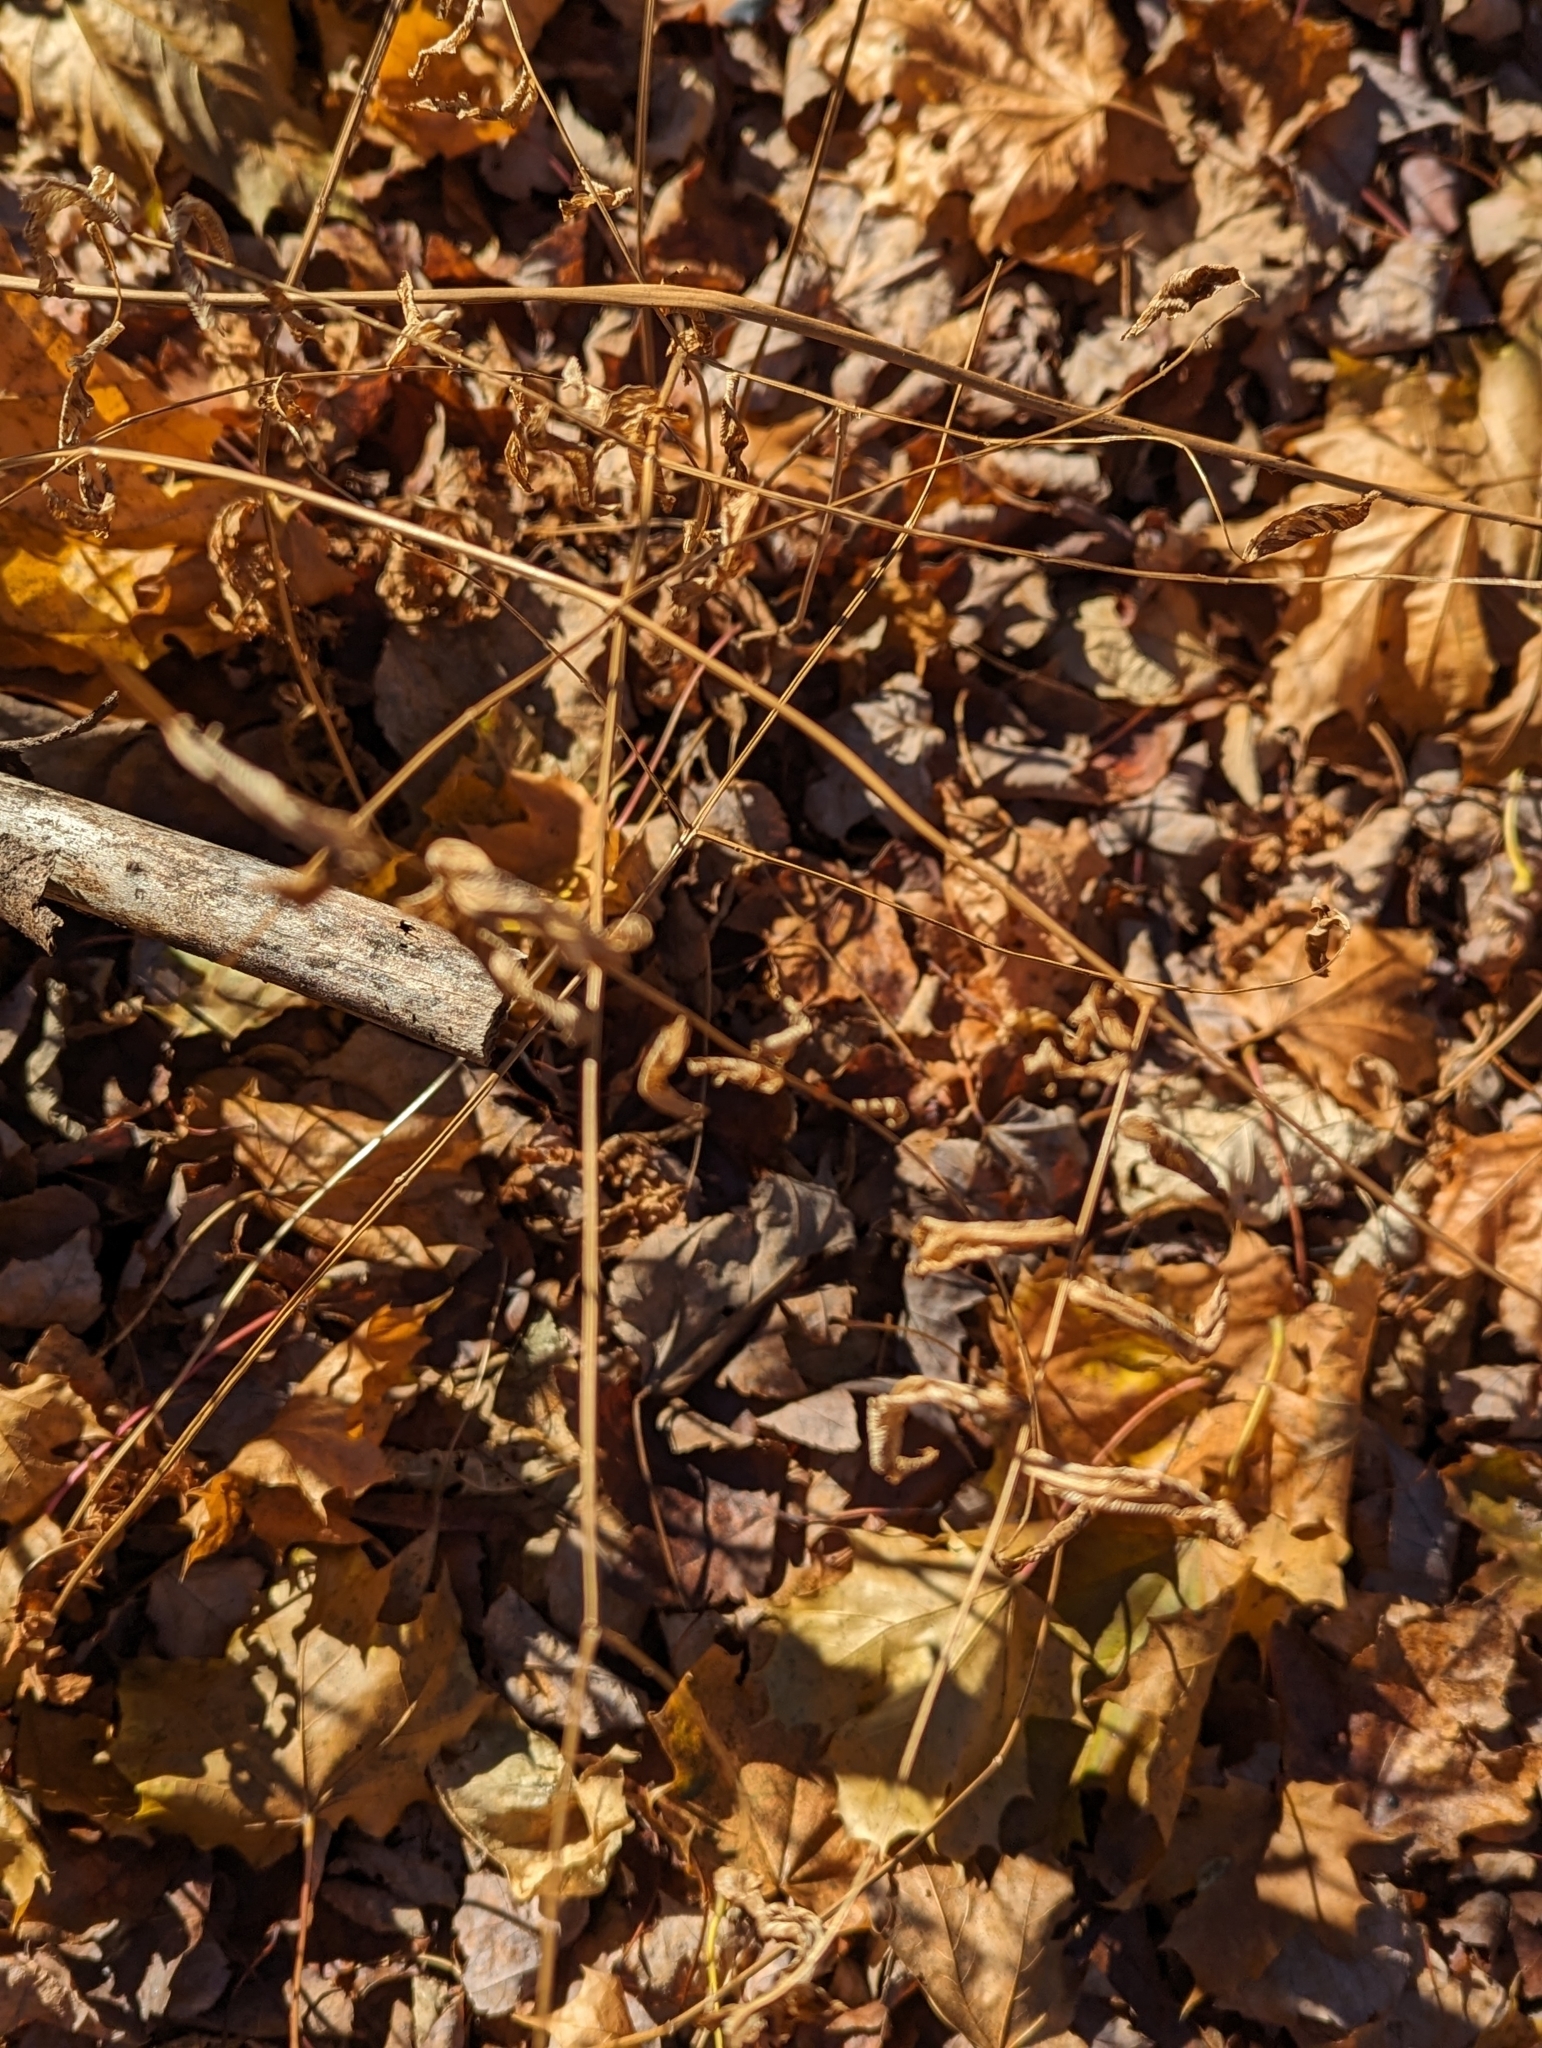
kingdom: Plantae
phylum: Tracheophyta
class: Polypodiopsida
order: Osmundales
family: Osmundaceae
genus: Osmunda
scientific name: Osmunda spectabilis
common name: American royal fern
